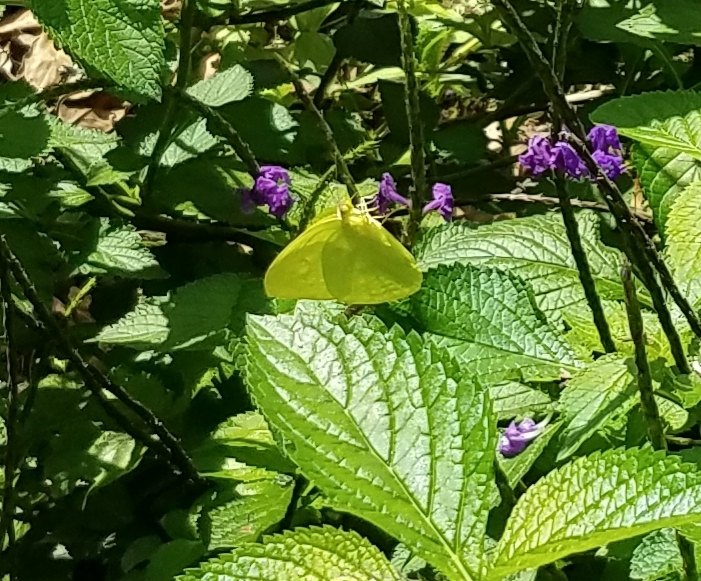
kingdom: Animalia
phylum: Arthropoda
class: Insecta
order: Lepidoptera
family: Pieridae
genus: Phoebis
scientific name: Phoebis marcellina
